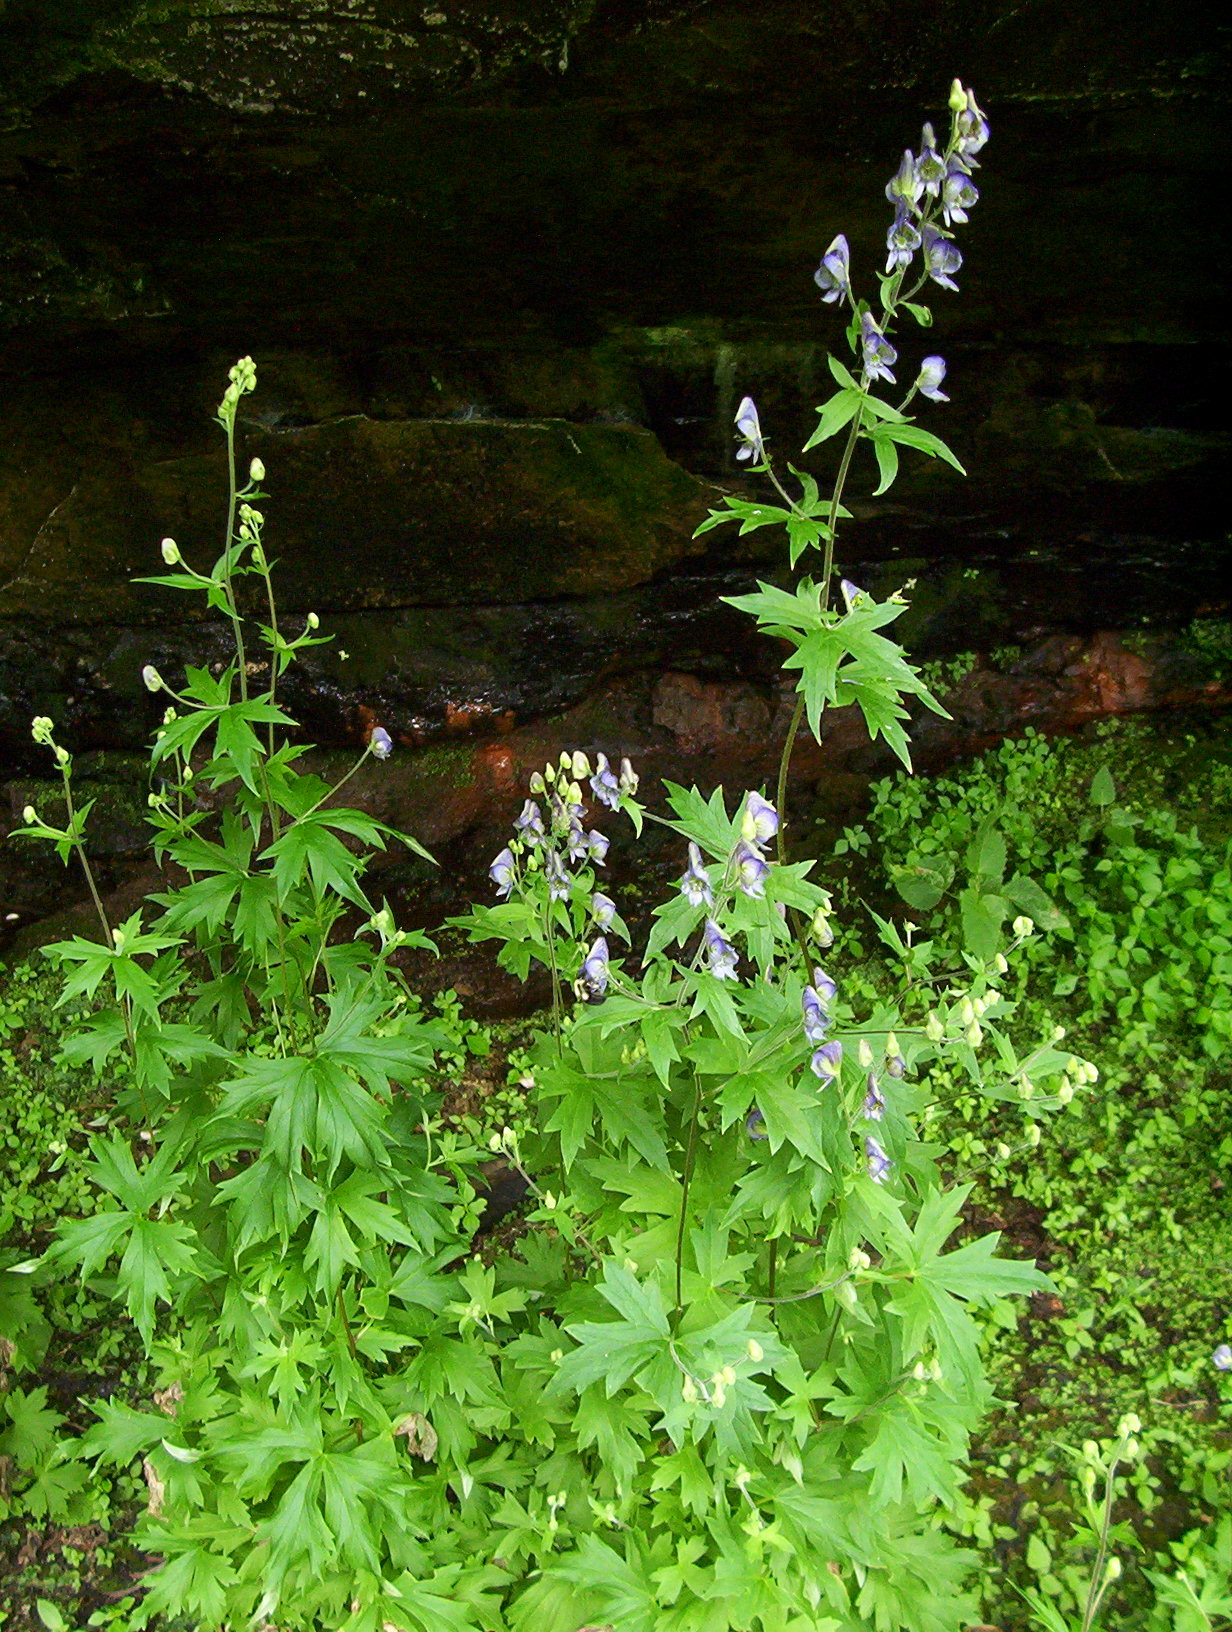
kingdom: Plantae
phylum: Tracheophyta
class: Magnoliopsida
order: Ranunculales
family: Ranunculaceae
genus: Aconitum
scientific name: Aconitum noveboracense
